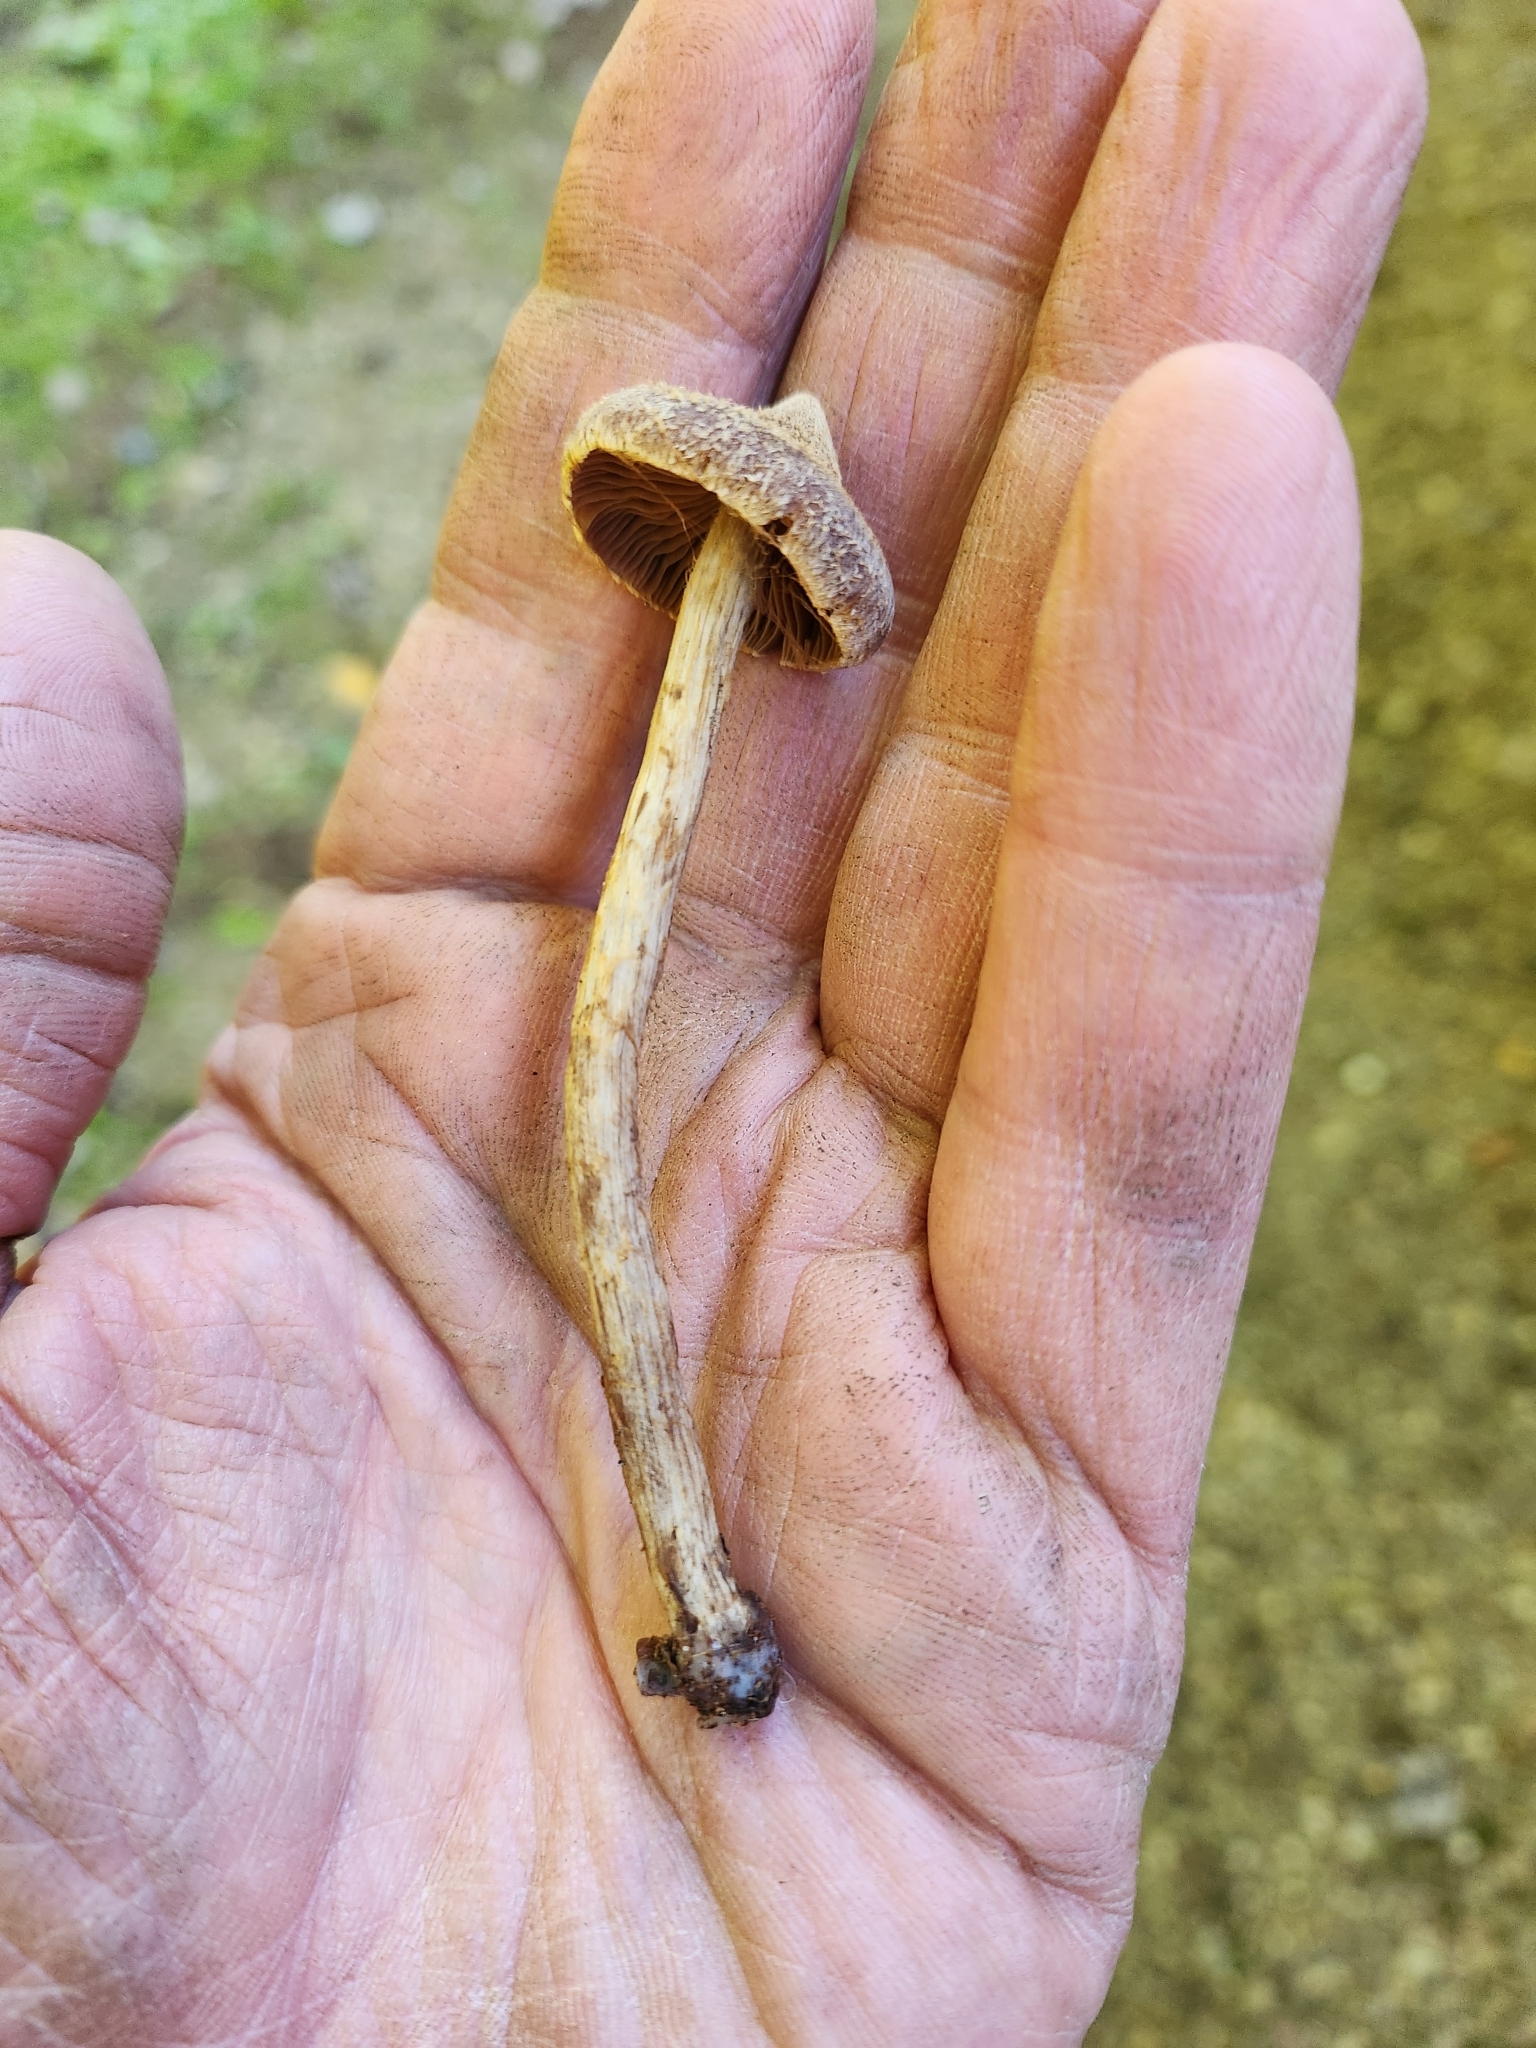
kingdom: Fungi
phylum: Basidiomycota
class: Agaricomycetes
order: Agaricales
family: Cortinariaceae
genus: Cortinarius
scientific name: Cortinarius angelesianus
